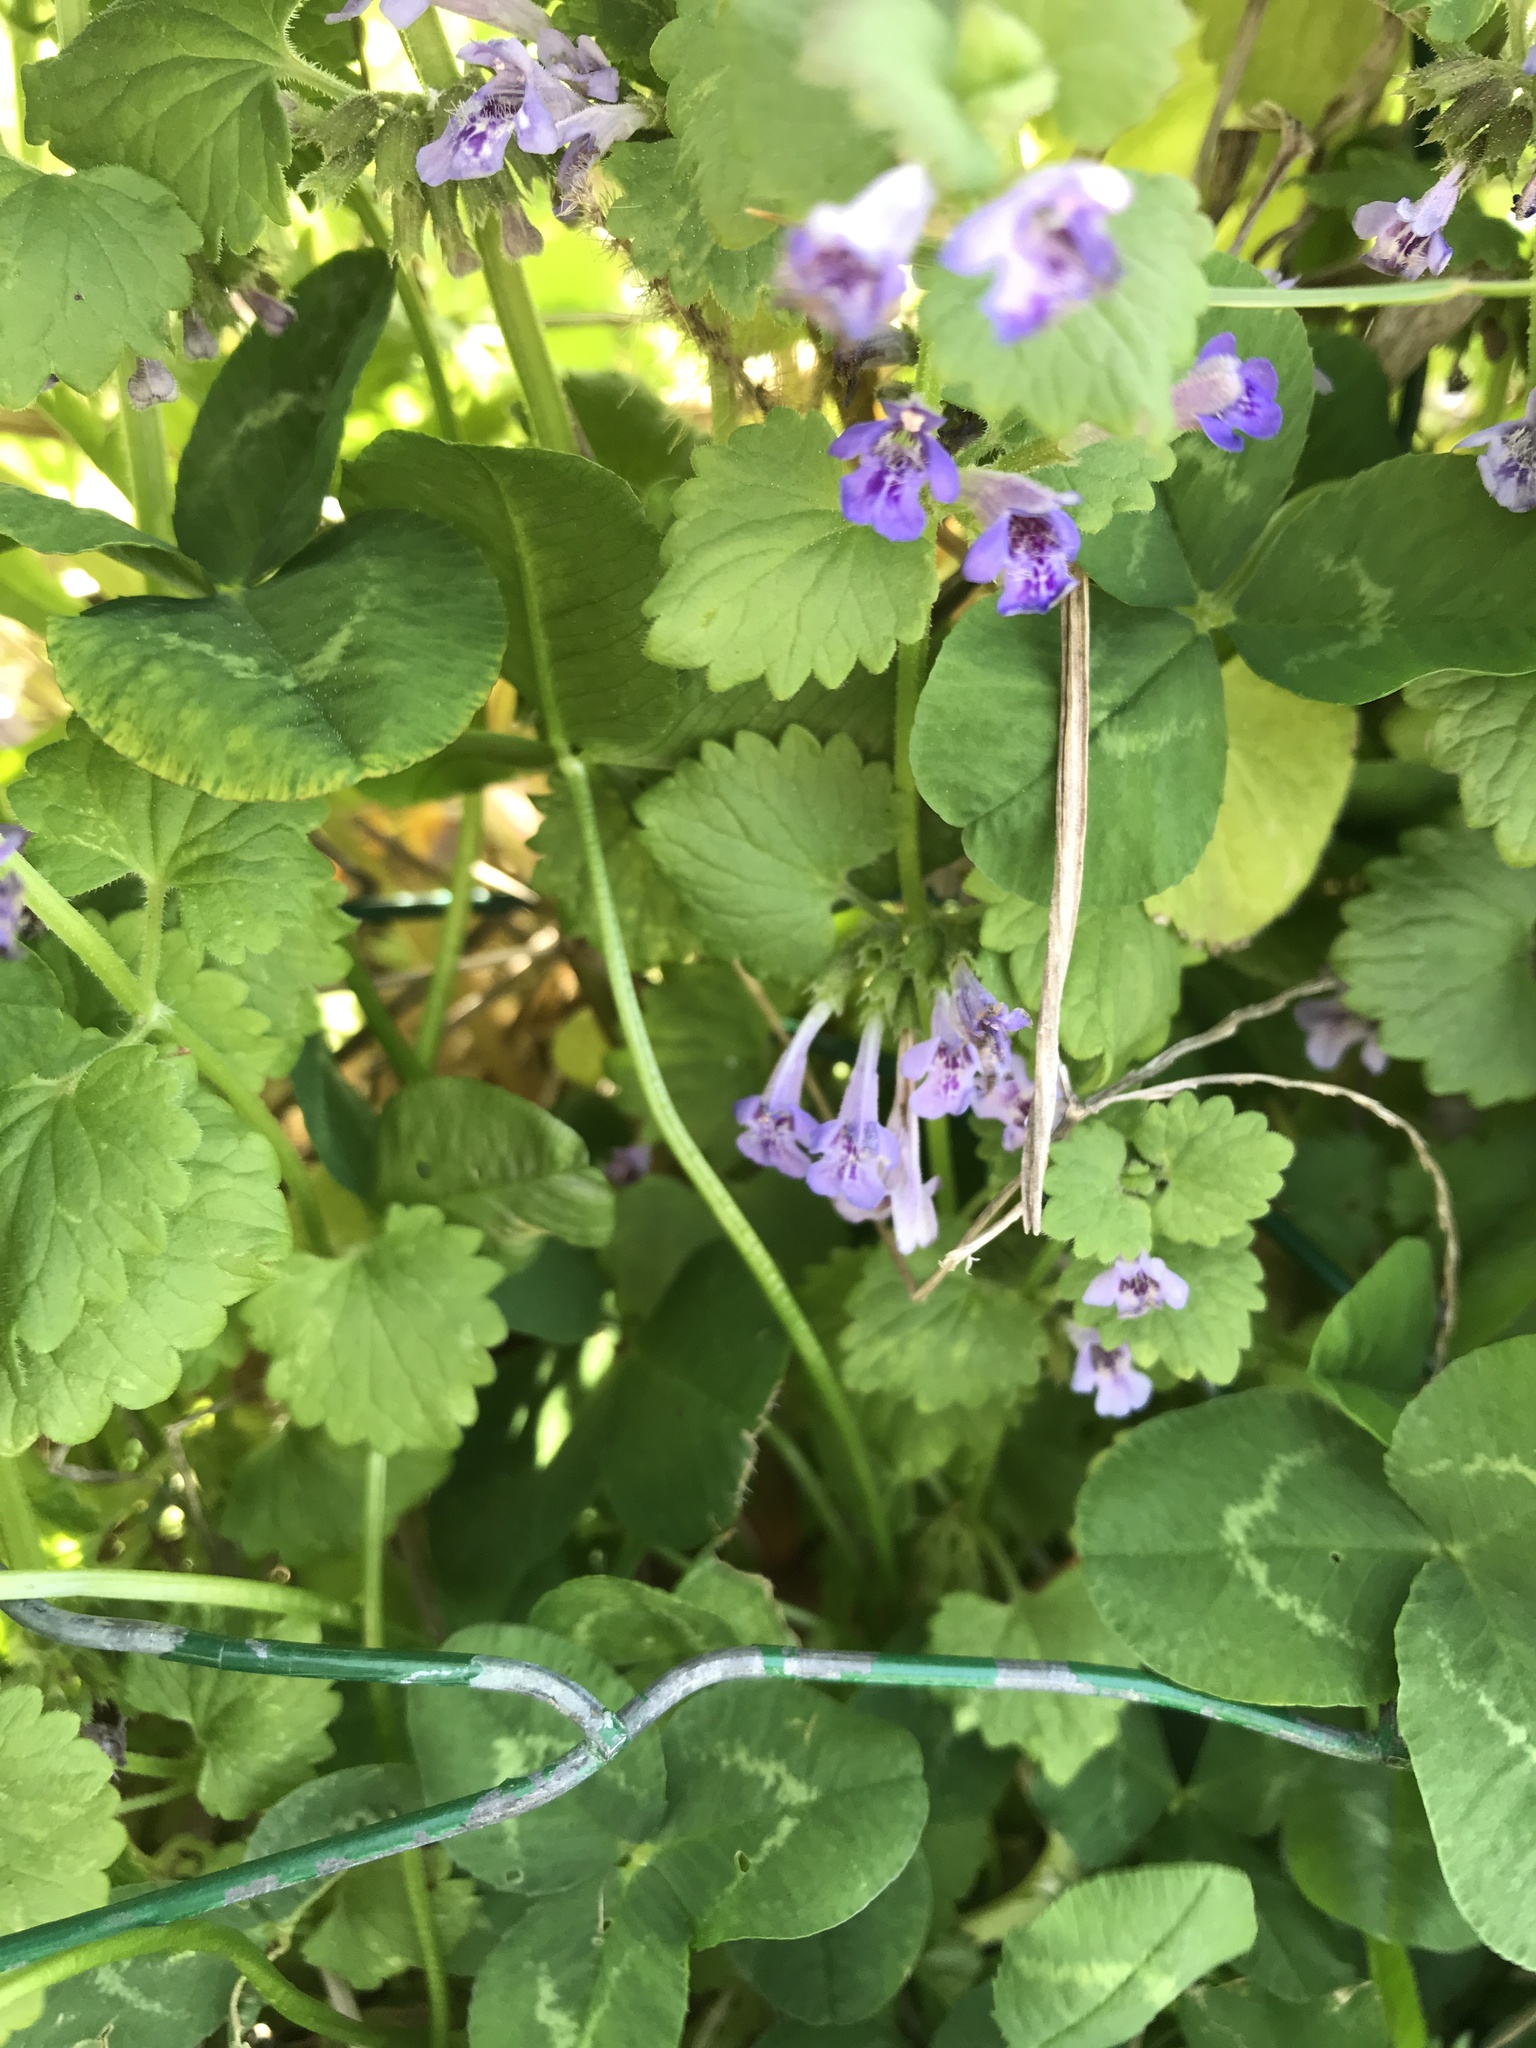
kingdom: Plantae
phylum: Tracheophyta
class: Magnoliopsida
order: Lamiales
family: Lamiaceae
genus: Glechoma
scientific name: Glechoma hederacea
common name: Ground ivy
